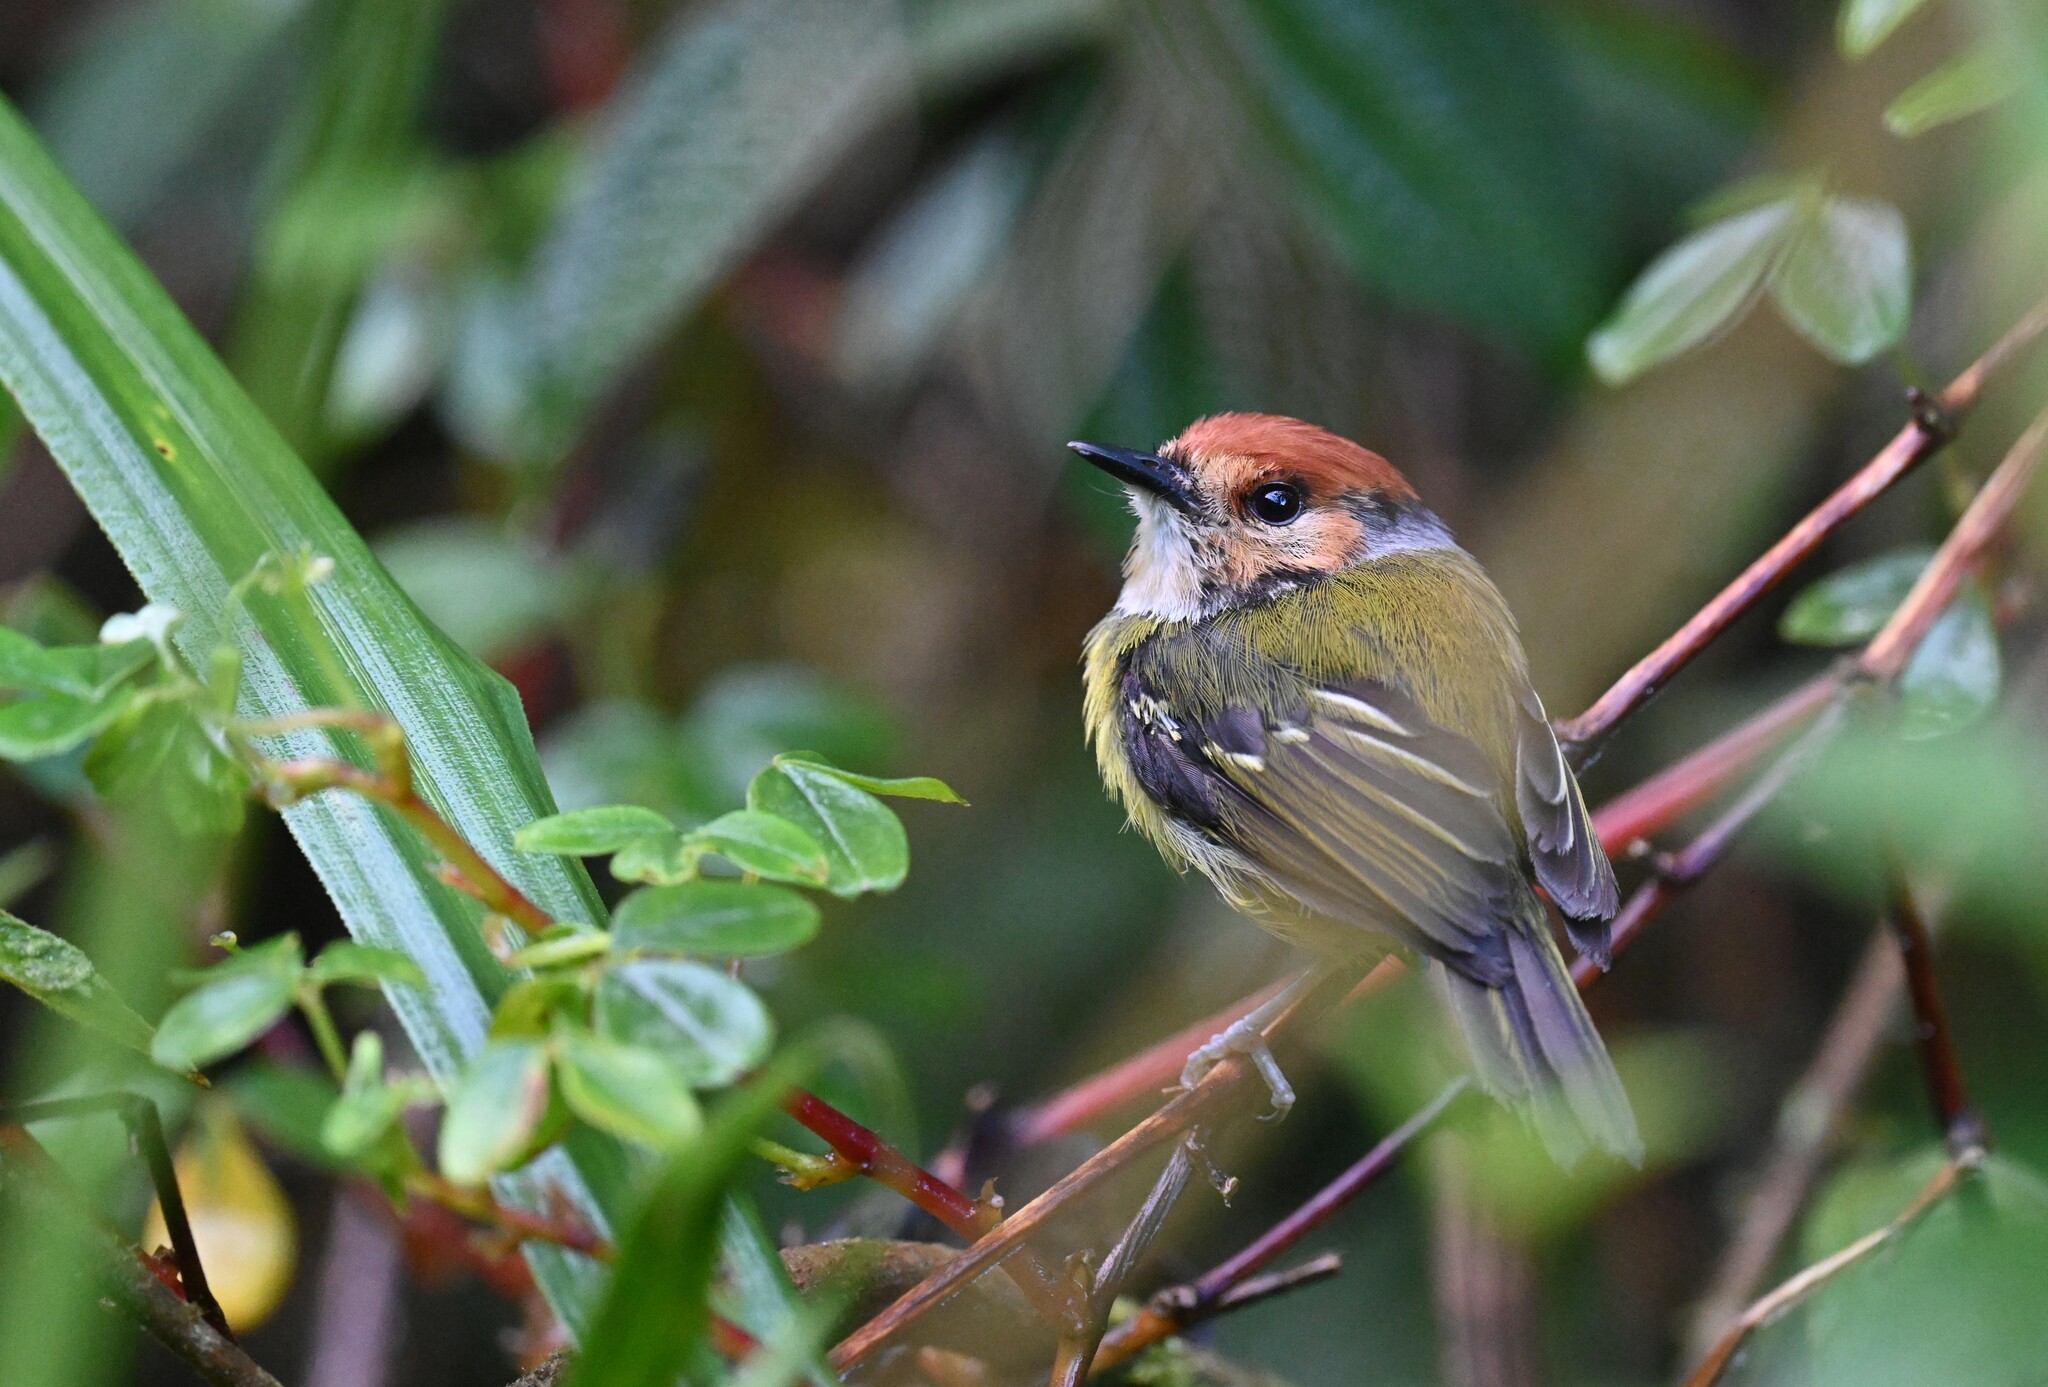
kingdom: Animalia
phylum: Chordata
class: Aves
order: Passeriformes
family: Tyrannidae
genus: Poecilotriccus
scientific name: Poecilotriccus ruficeps
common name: Rufous-crowned tody-flycatcher
